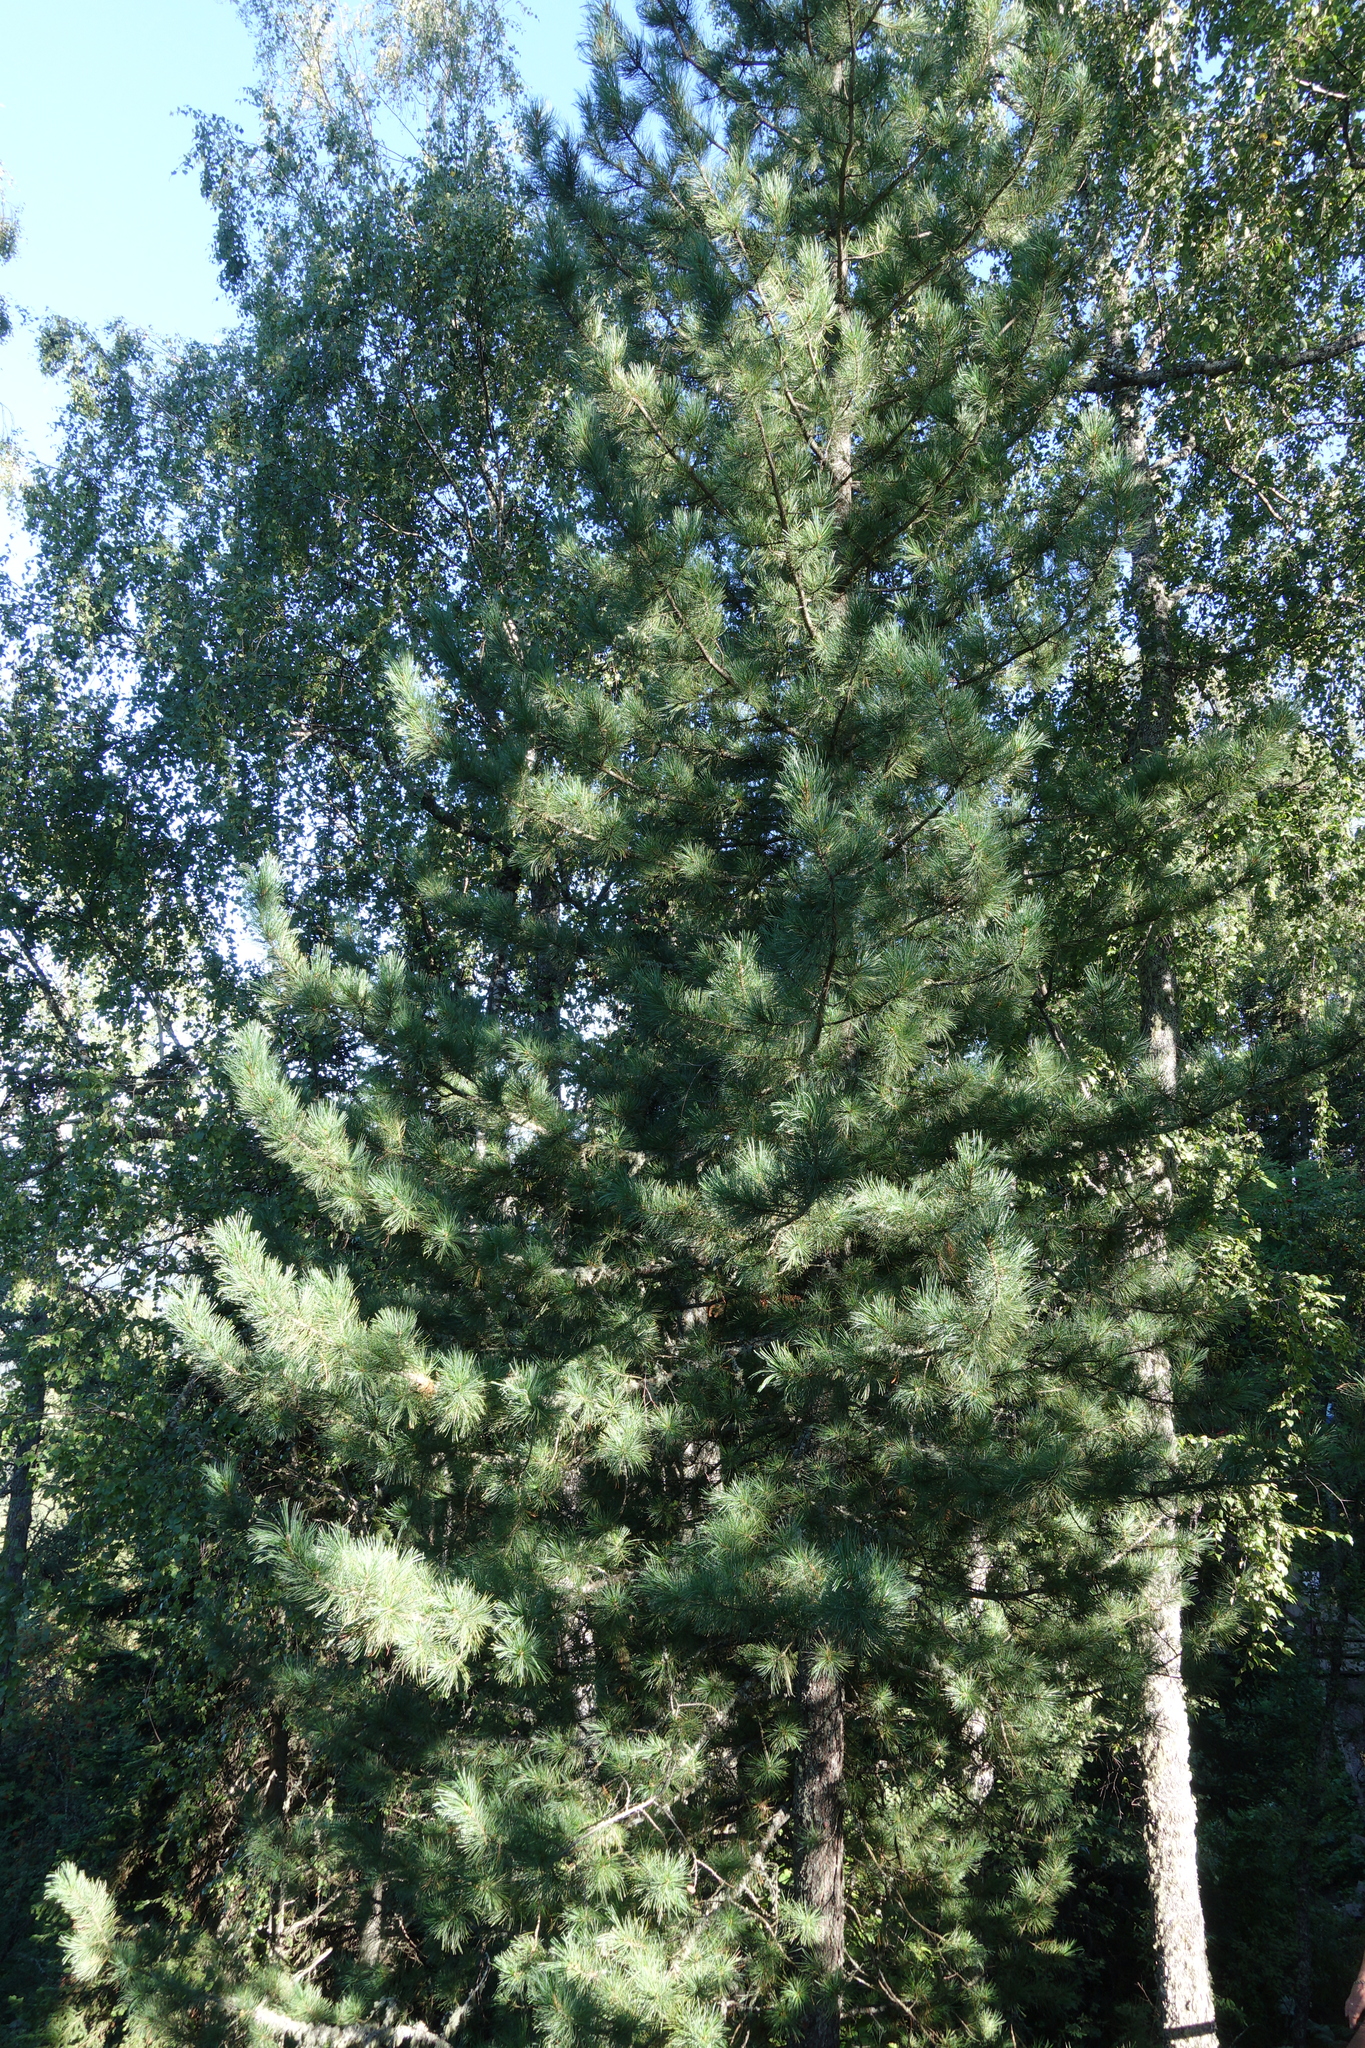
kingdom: Plantae
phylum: Tracheophyta
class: Pinopsida
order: Pinales
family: Pinaceae
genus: Pinus
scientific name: Pinus sibirica
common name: Siberian pine
